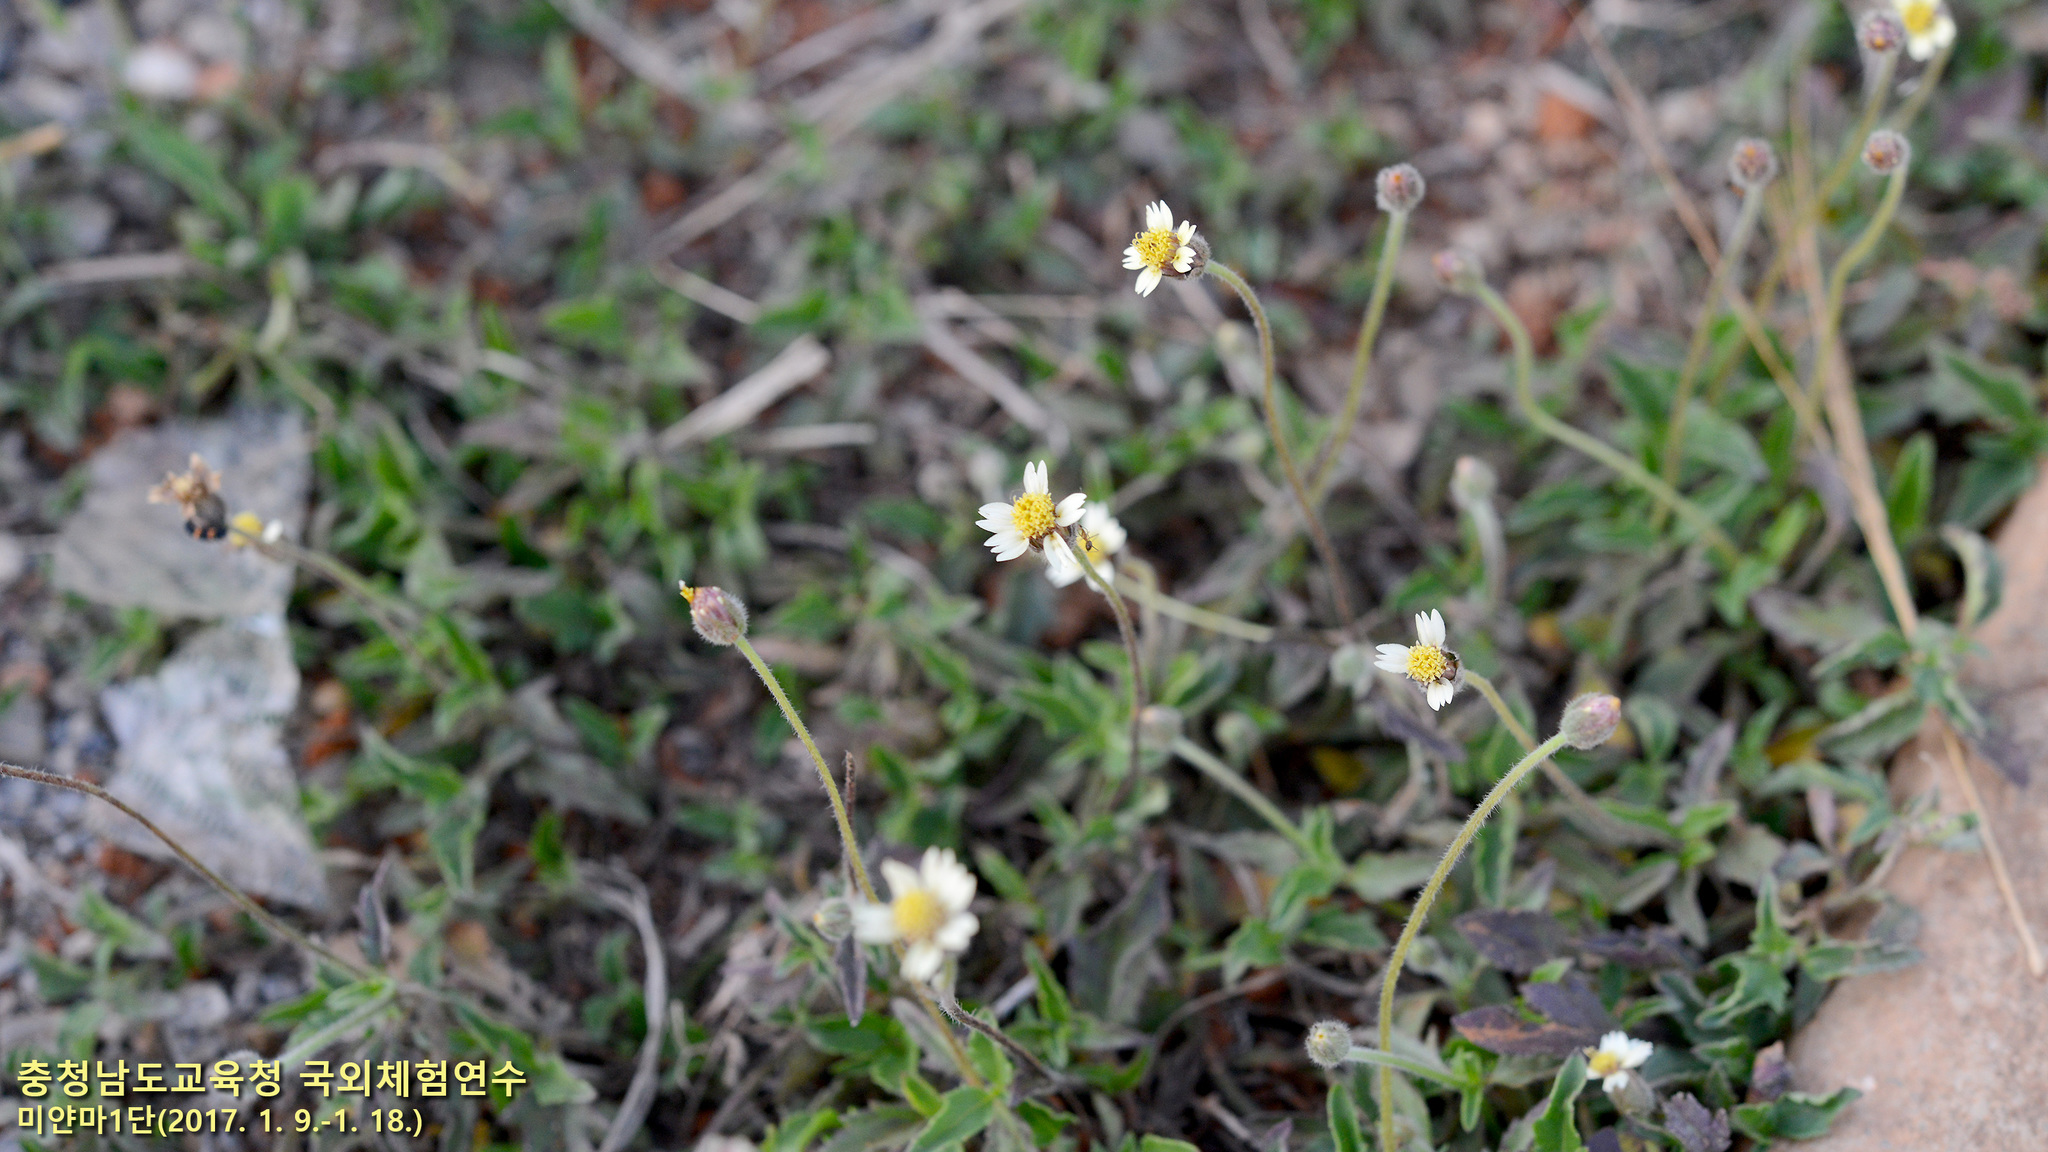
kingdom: Plantae
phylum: Tracheophyta
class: Magnoliopsida
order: Asterales
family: Asteraceae
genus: Tridax
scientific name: Tridax procumbens
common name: Coatbuttons
